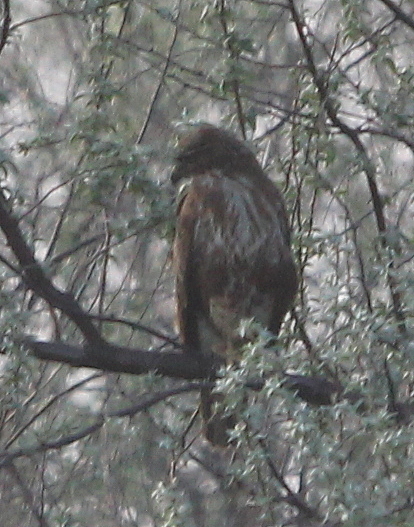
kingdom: Animalia
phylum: Chordata
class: Aves
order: Accipitriformes
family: Accipitridae
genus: Buteo
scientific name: Buteo buteo
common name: Common buzzard
